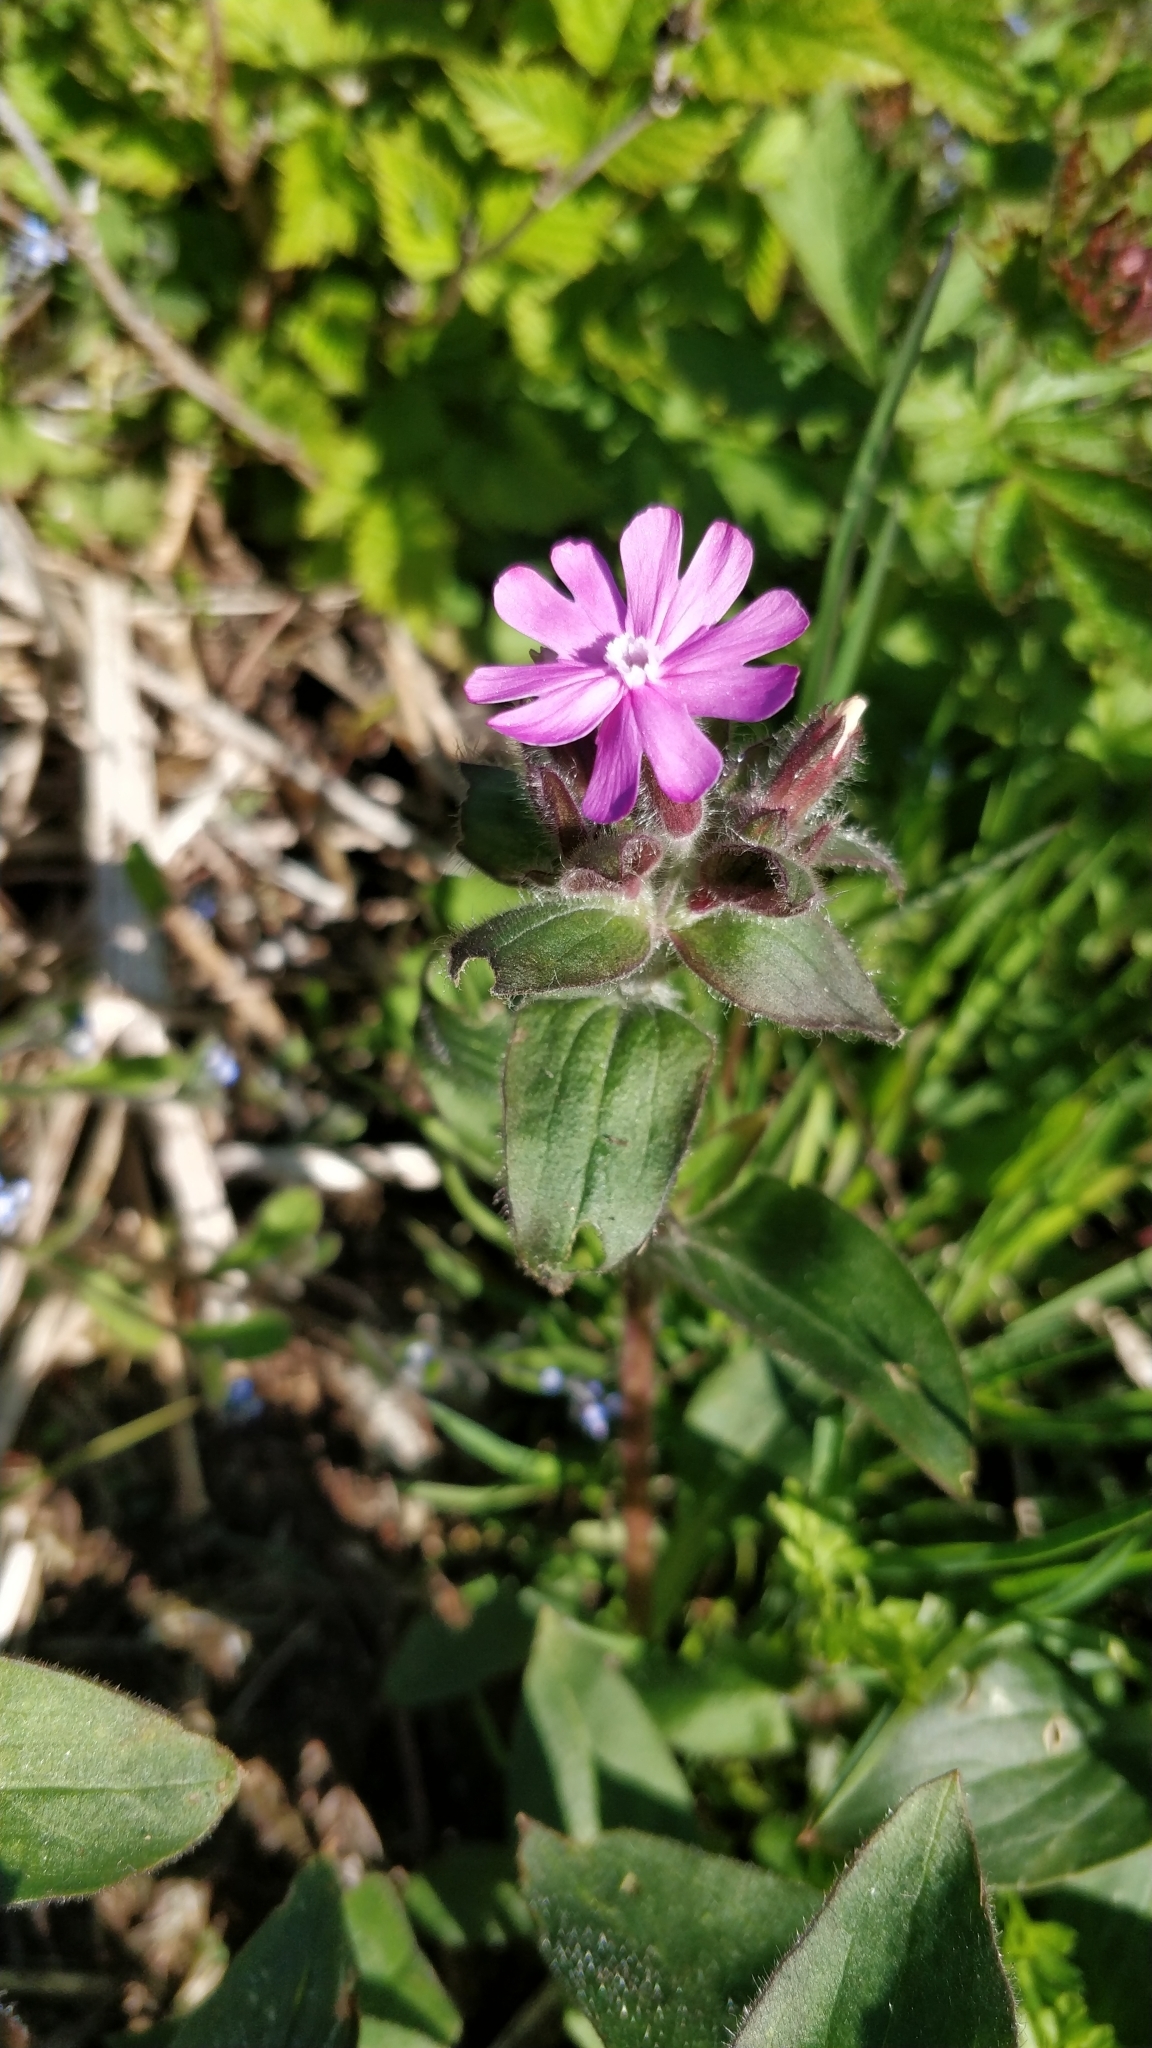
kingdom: Plantae
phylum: Tracheophyta
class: Magnoliopsida
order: Caryophyllales
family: Caryophyllaceae
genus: Silene
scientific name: Silene dioica
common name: Red campion
